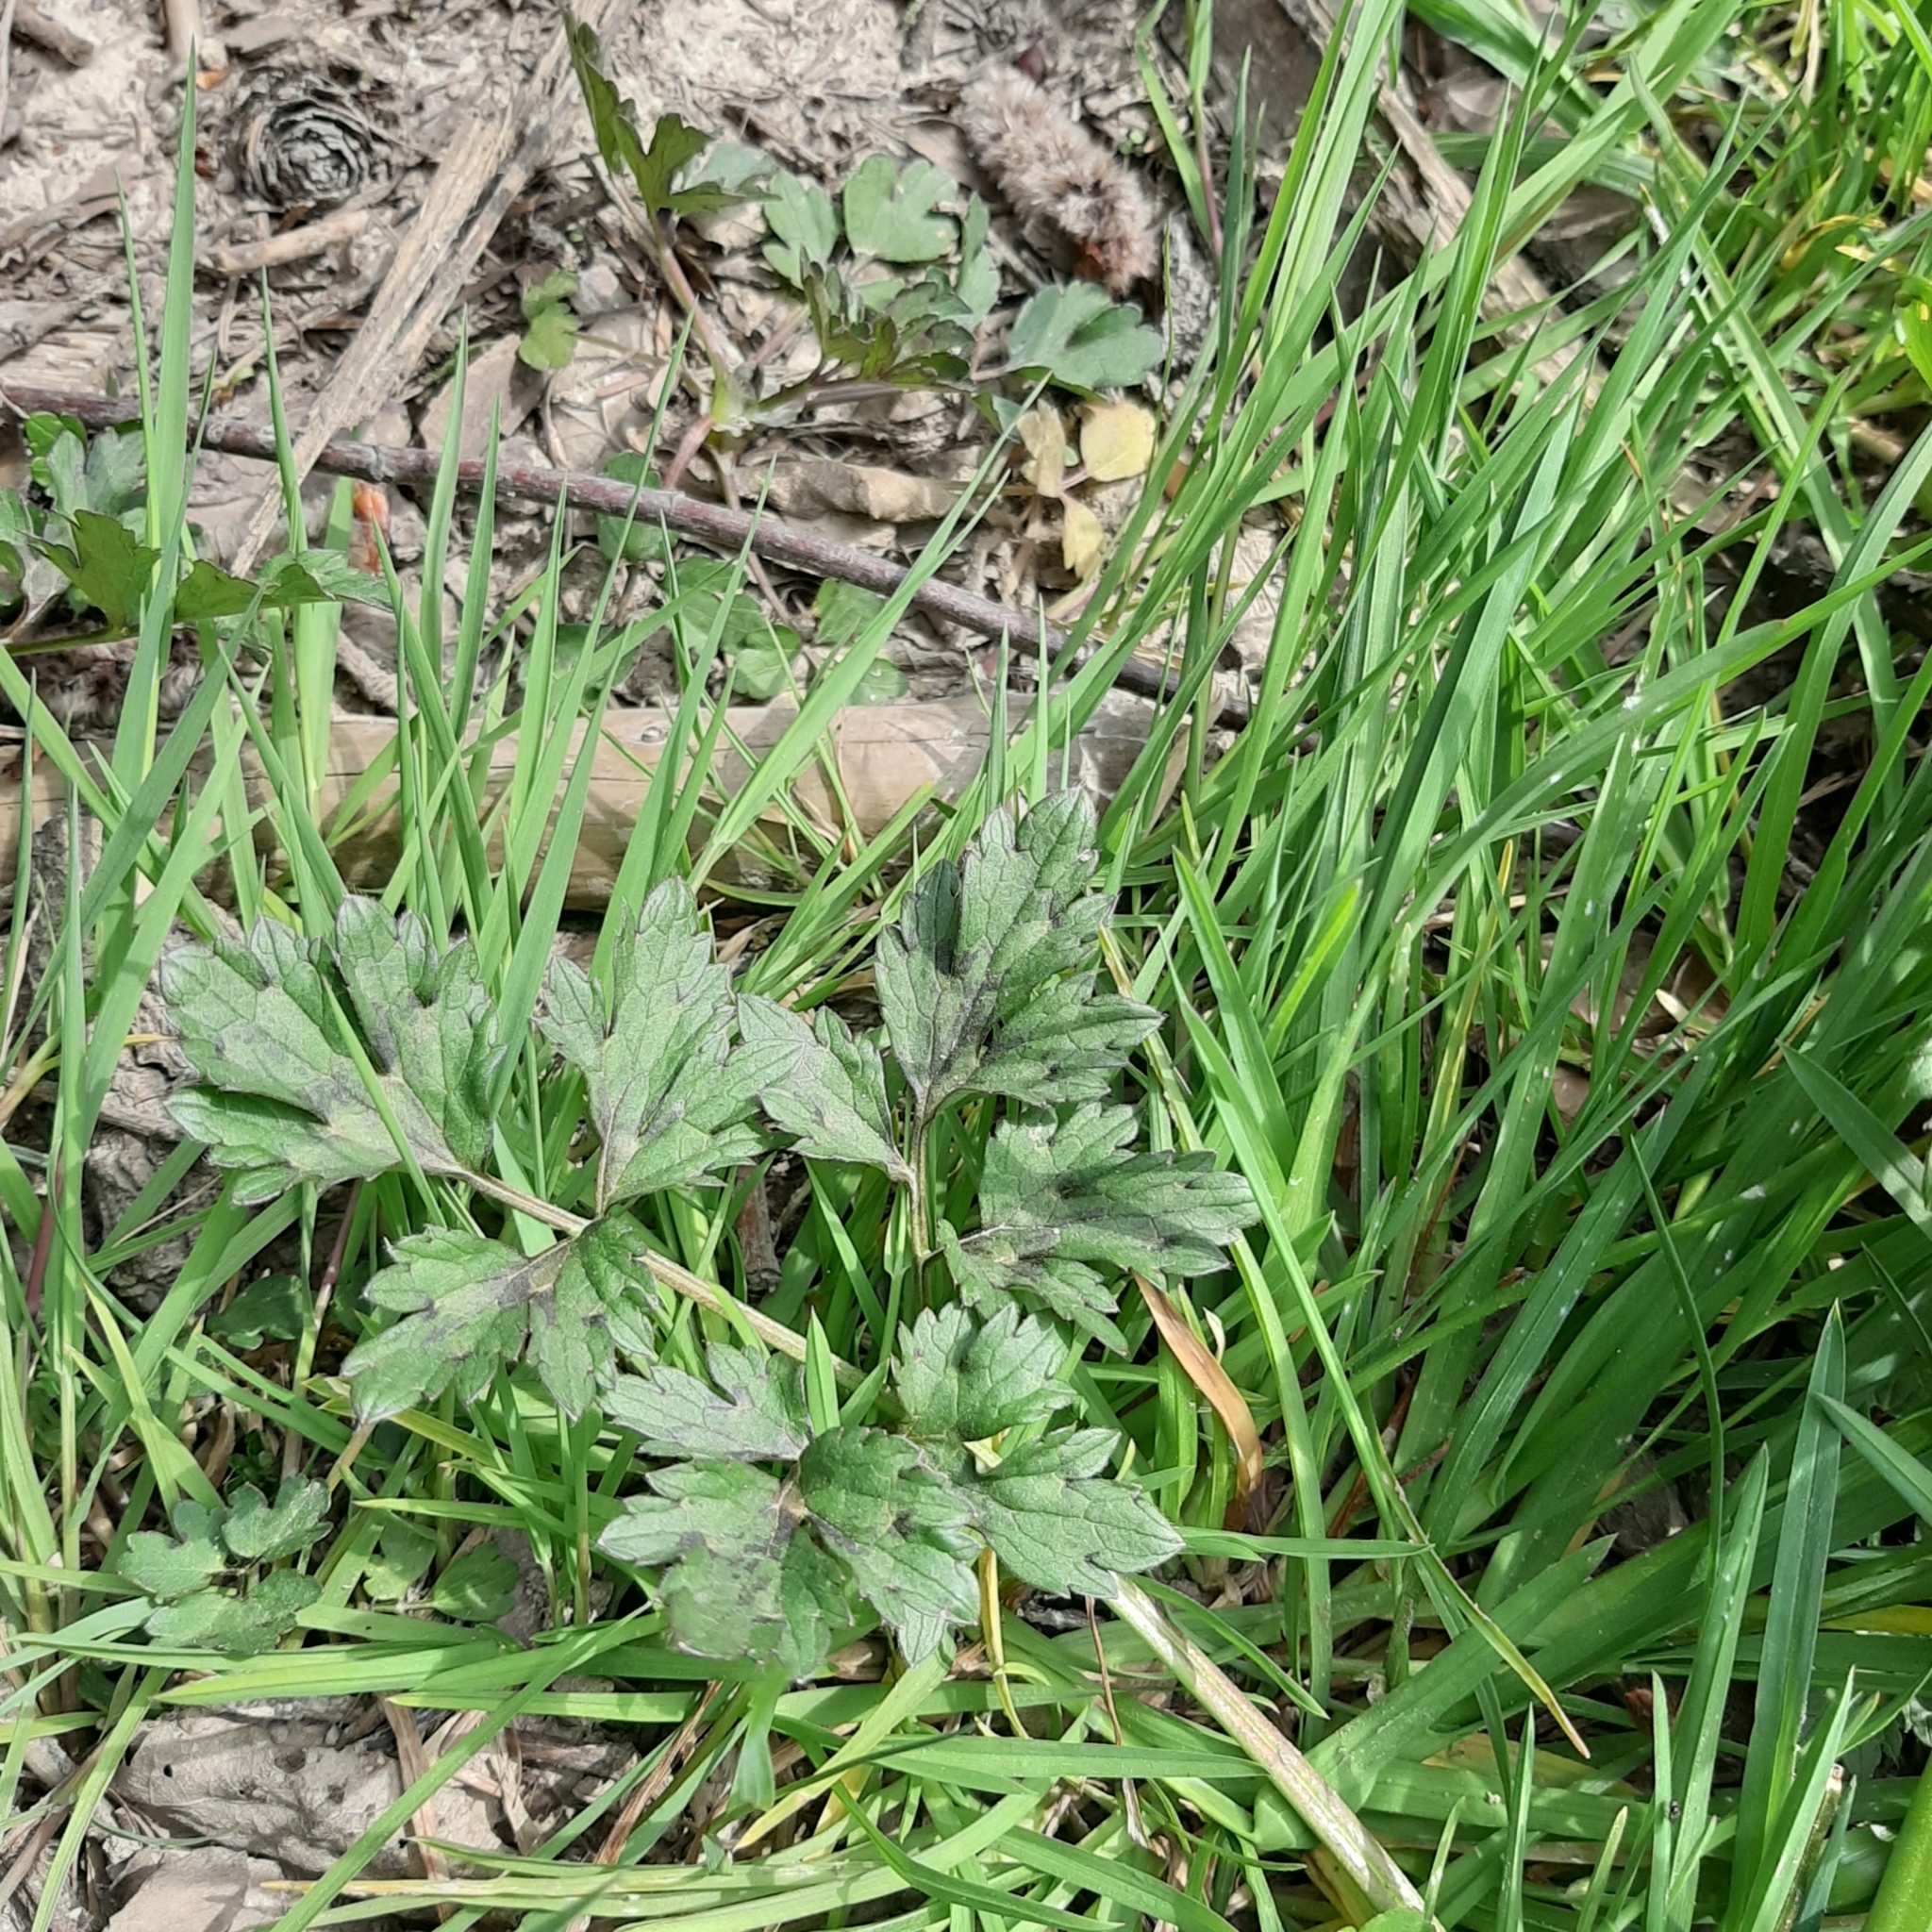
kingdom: Plantae
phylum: Tracheophyta
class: Magnoliopsida
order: Ranunculales
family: Ranunculaceae
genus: Ranunculus
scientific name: Ranunculus repens
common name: Creeping buttercup
